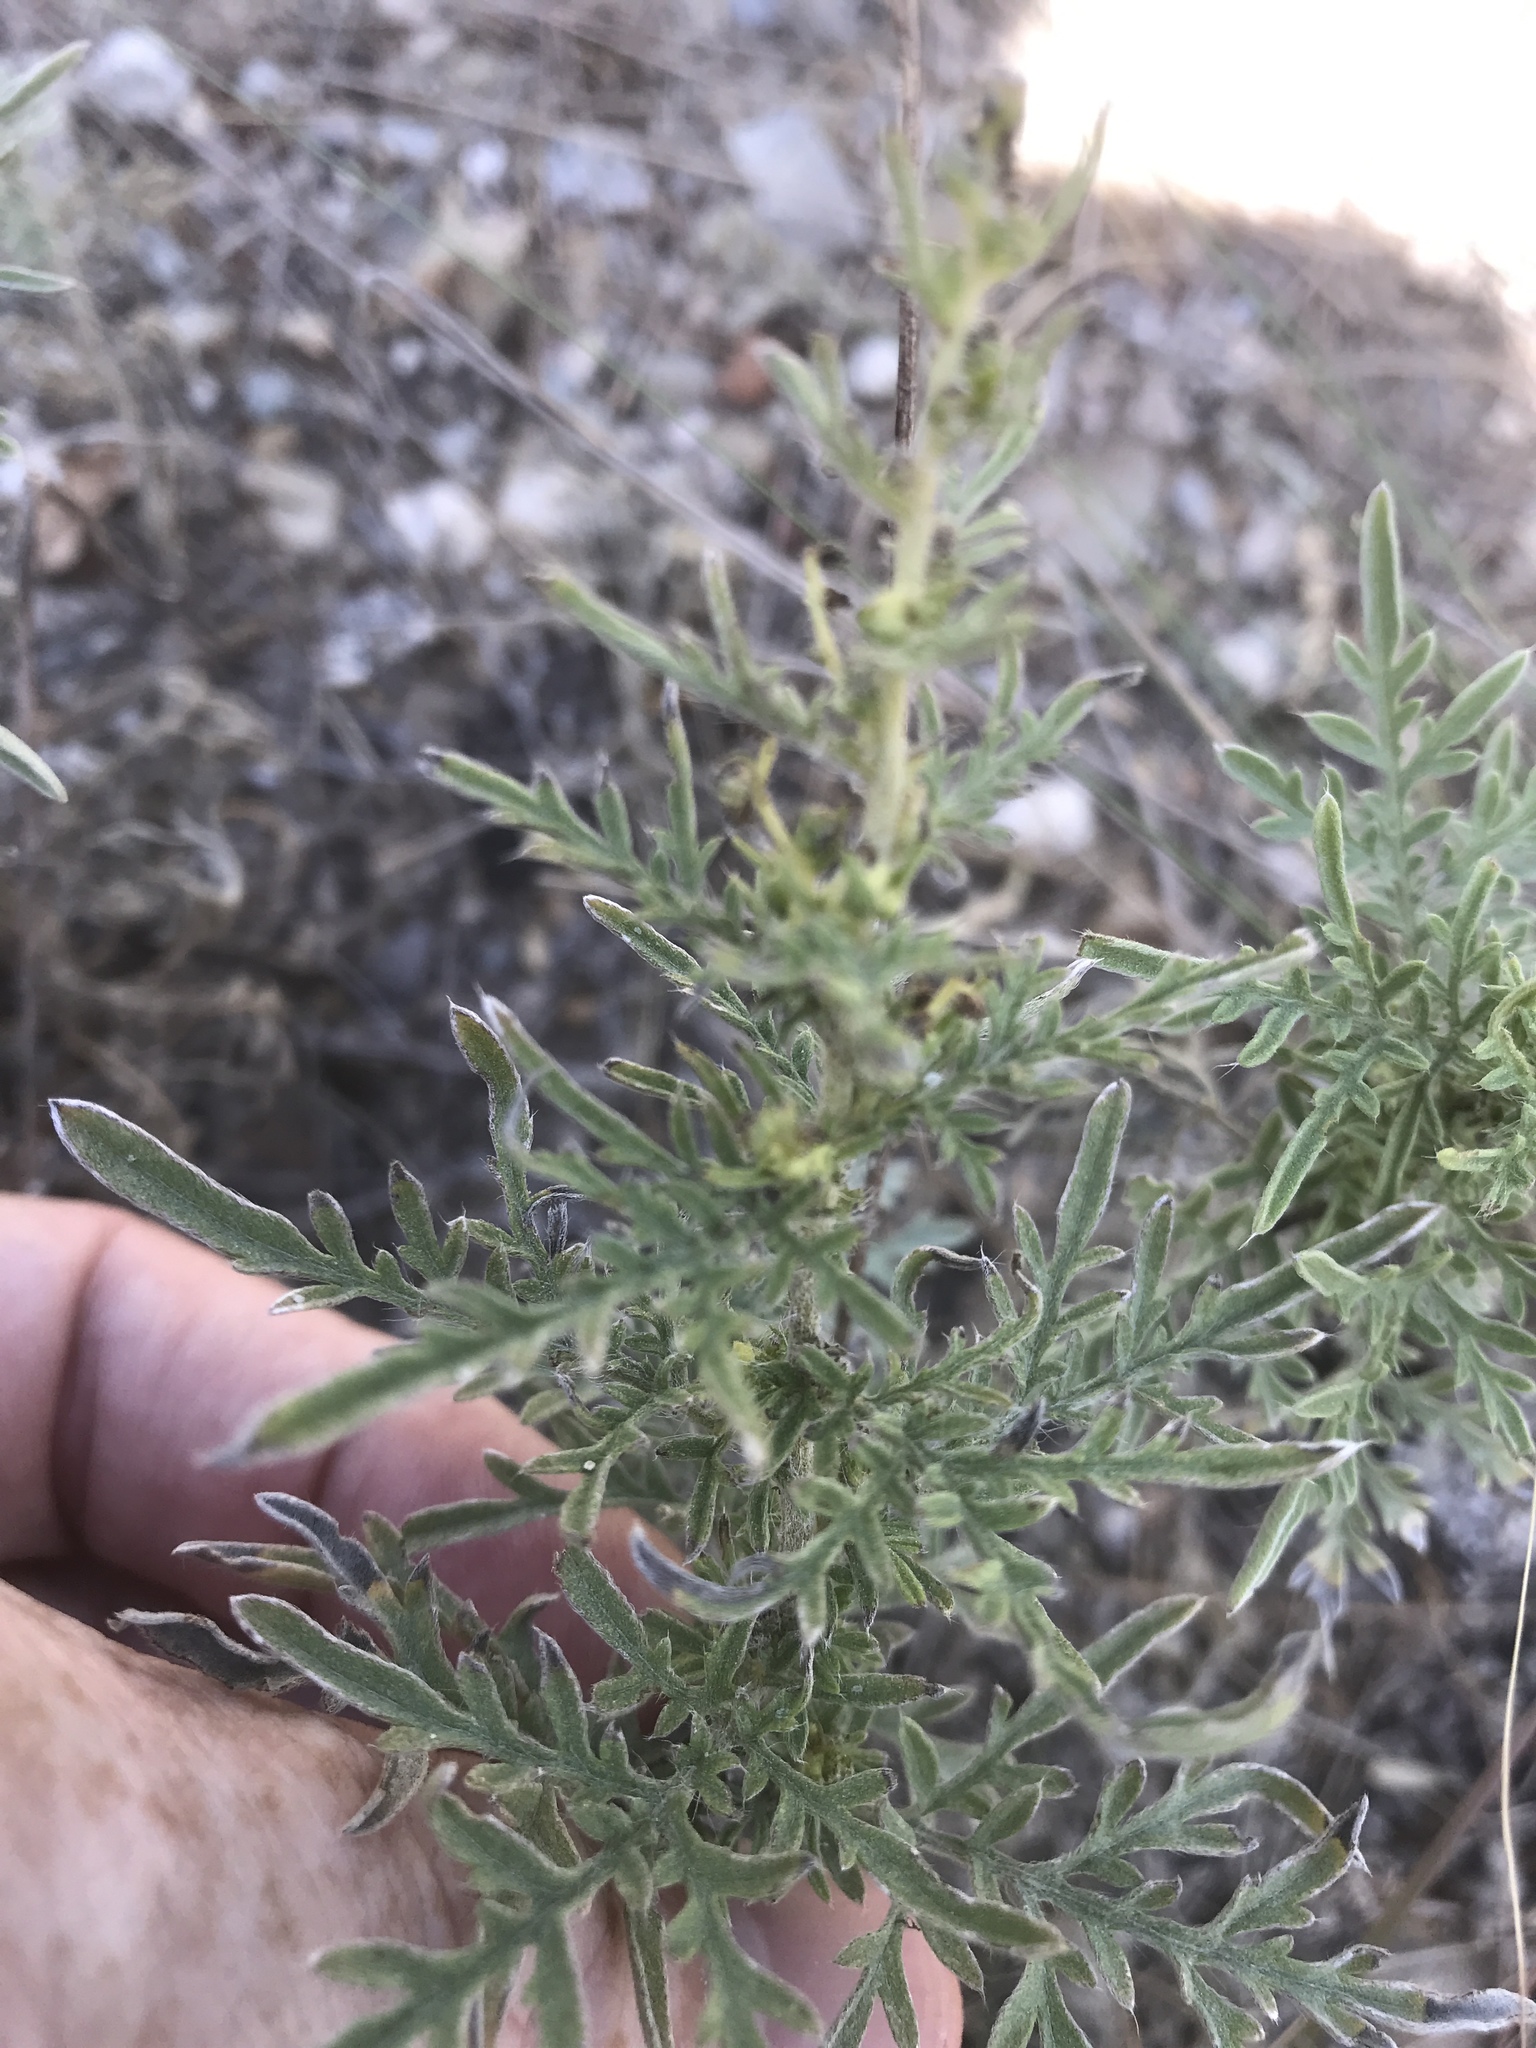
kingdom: Plantae
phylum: Tracheophyta
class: Magnoliopsida
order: Asterales
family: Asteraceae
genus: Ambrosia
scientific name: Ambrosia confertiflora
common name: Bur ragweed
